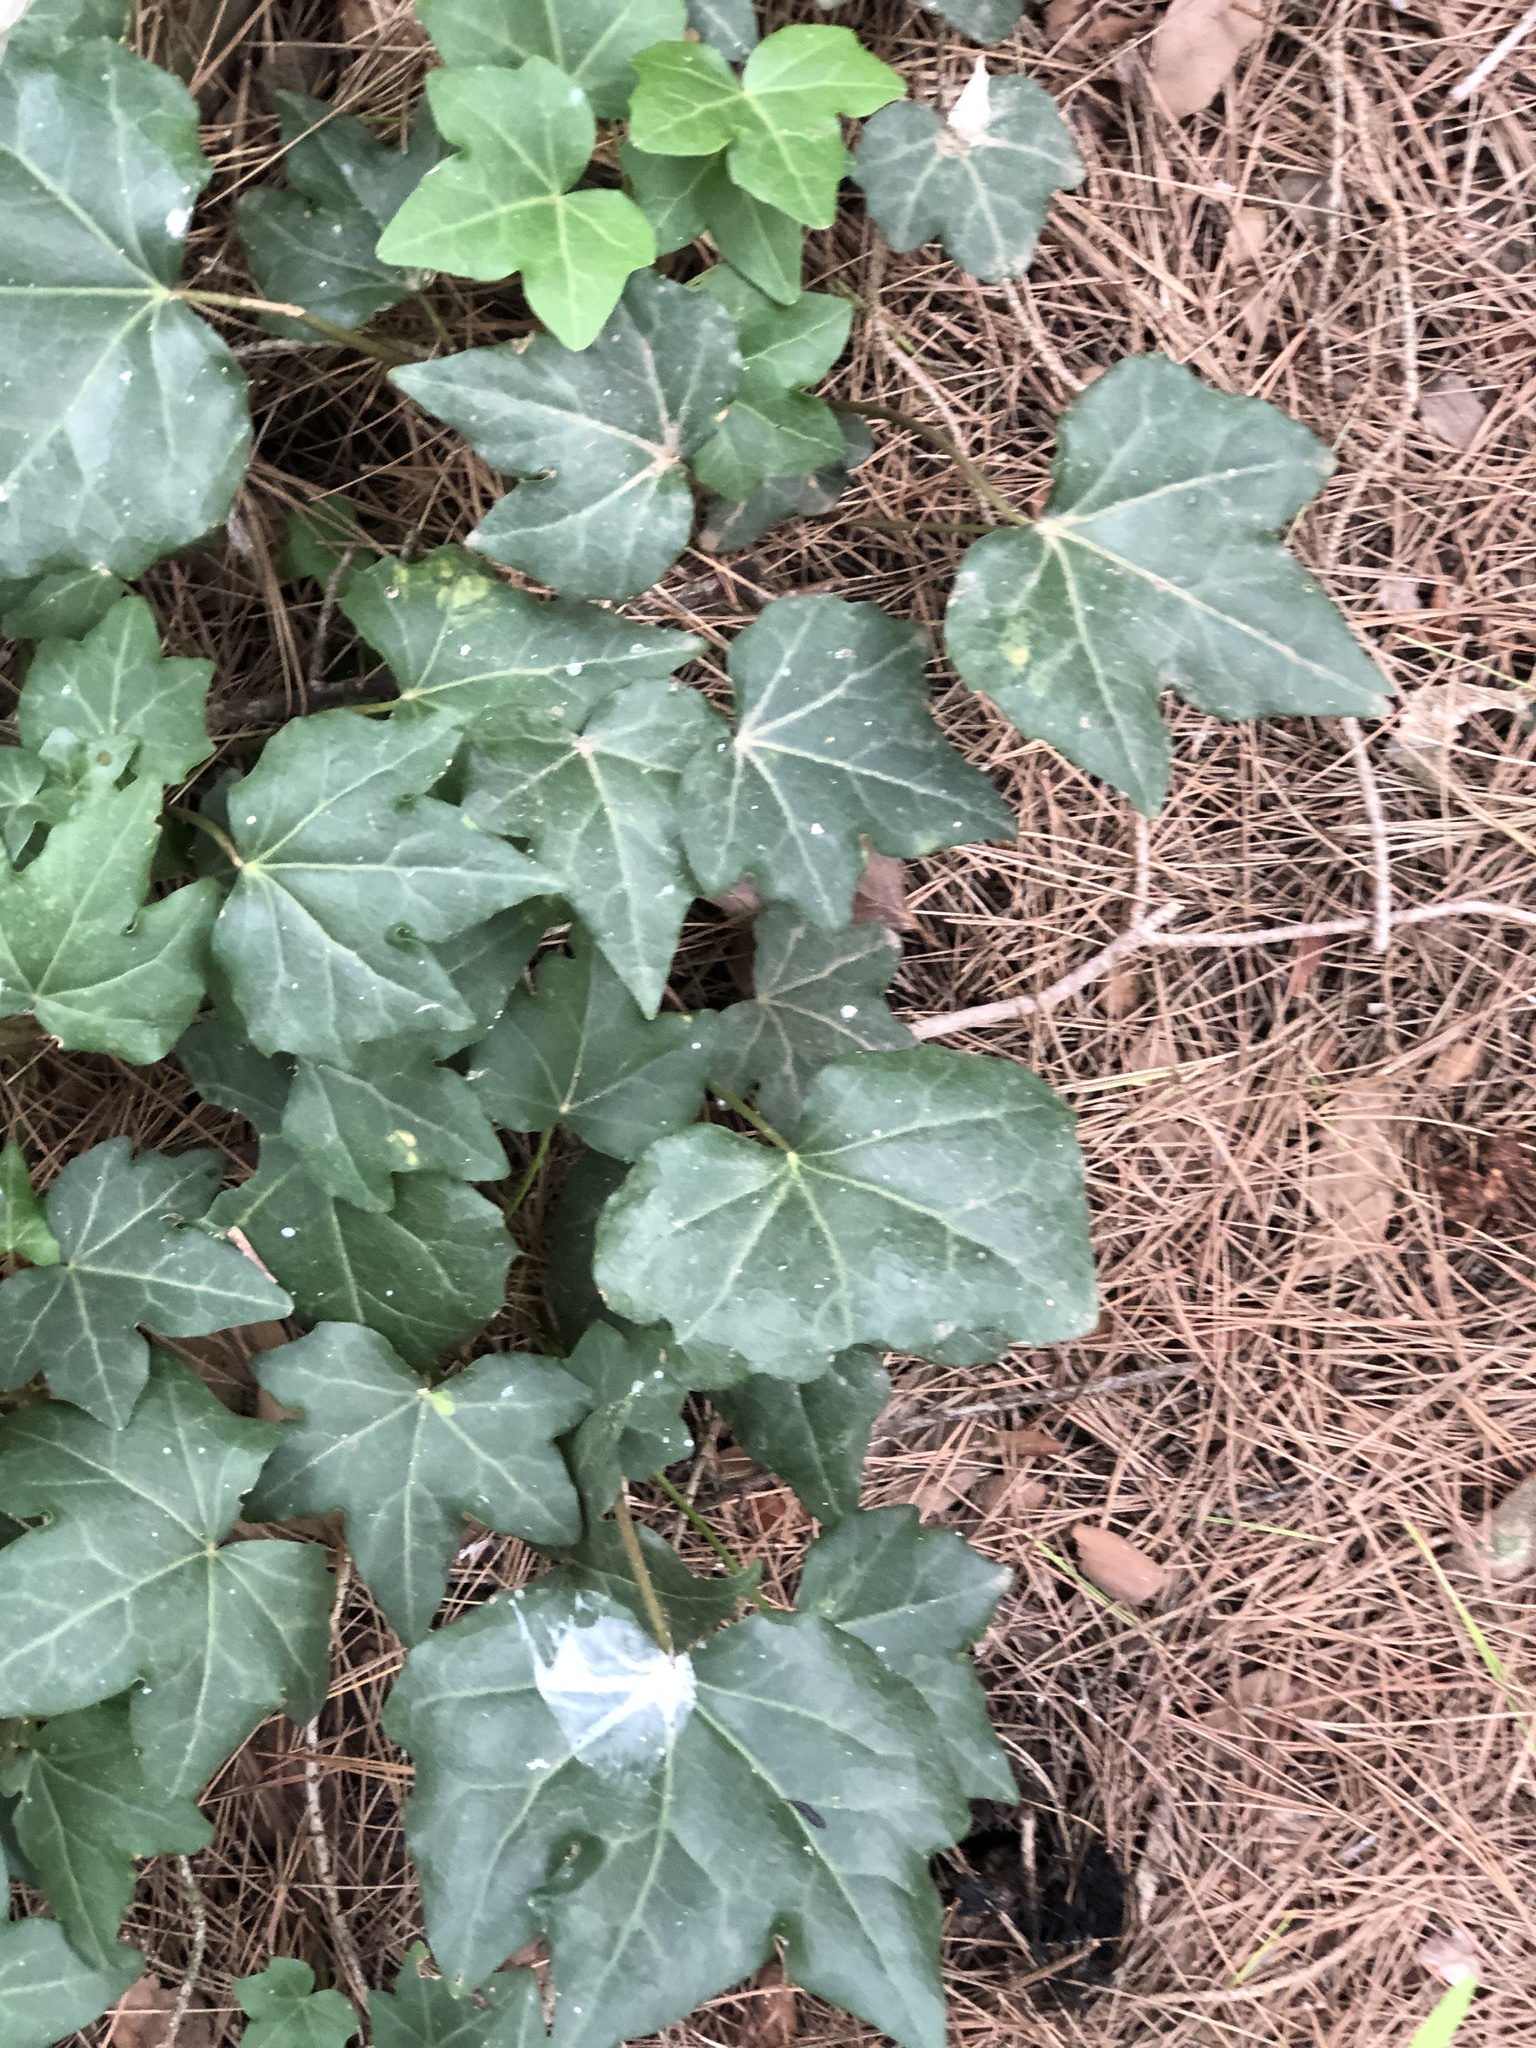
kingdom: Plantae
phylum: Tracheophyta
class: Magnoliopsida
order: Apiales
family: Araliaceae
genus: Hedera
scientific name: Hedera helix
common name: Ivy
